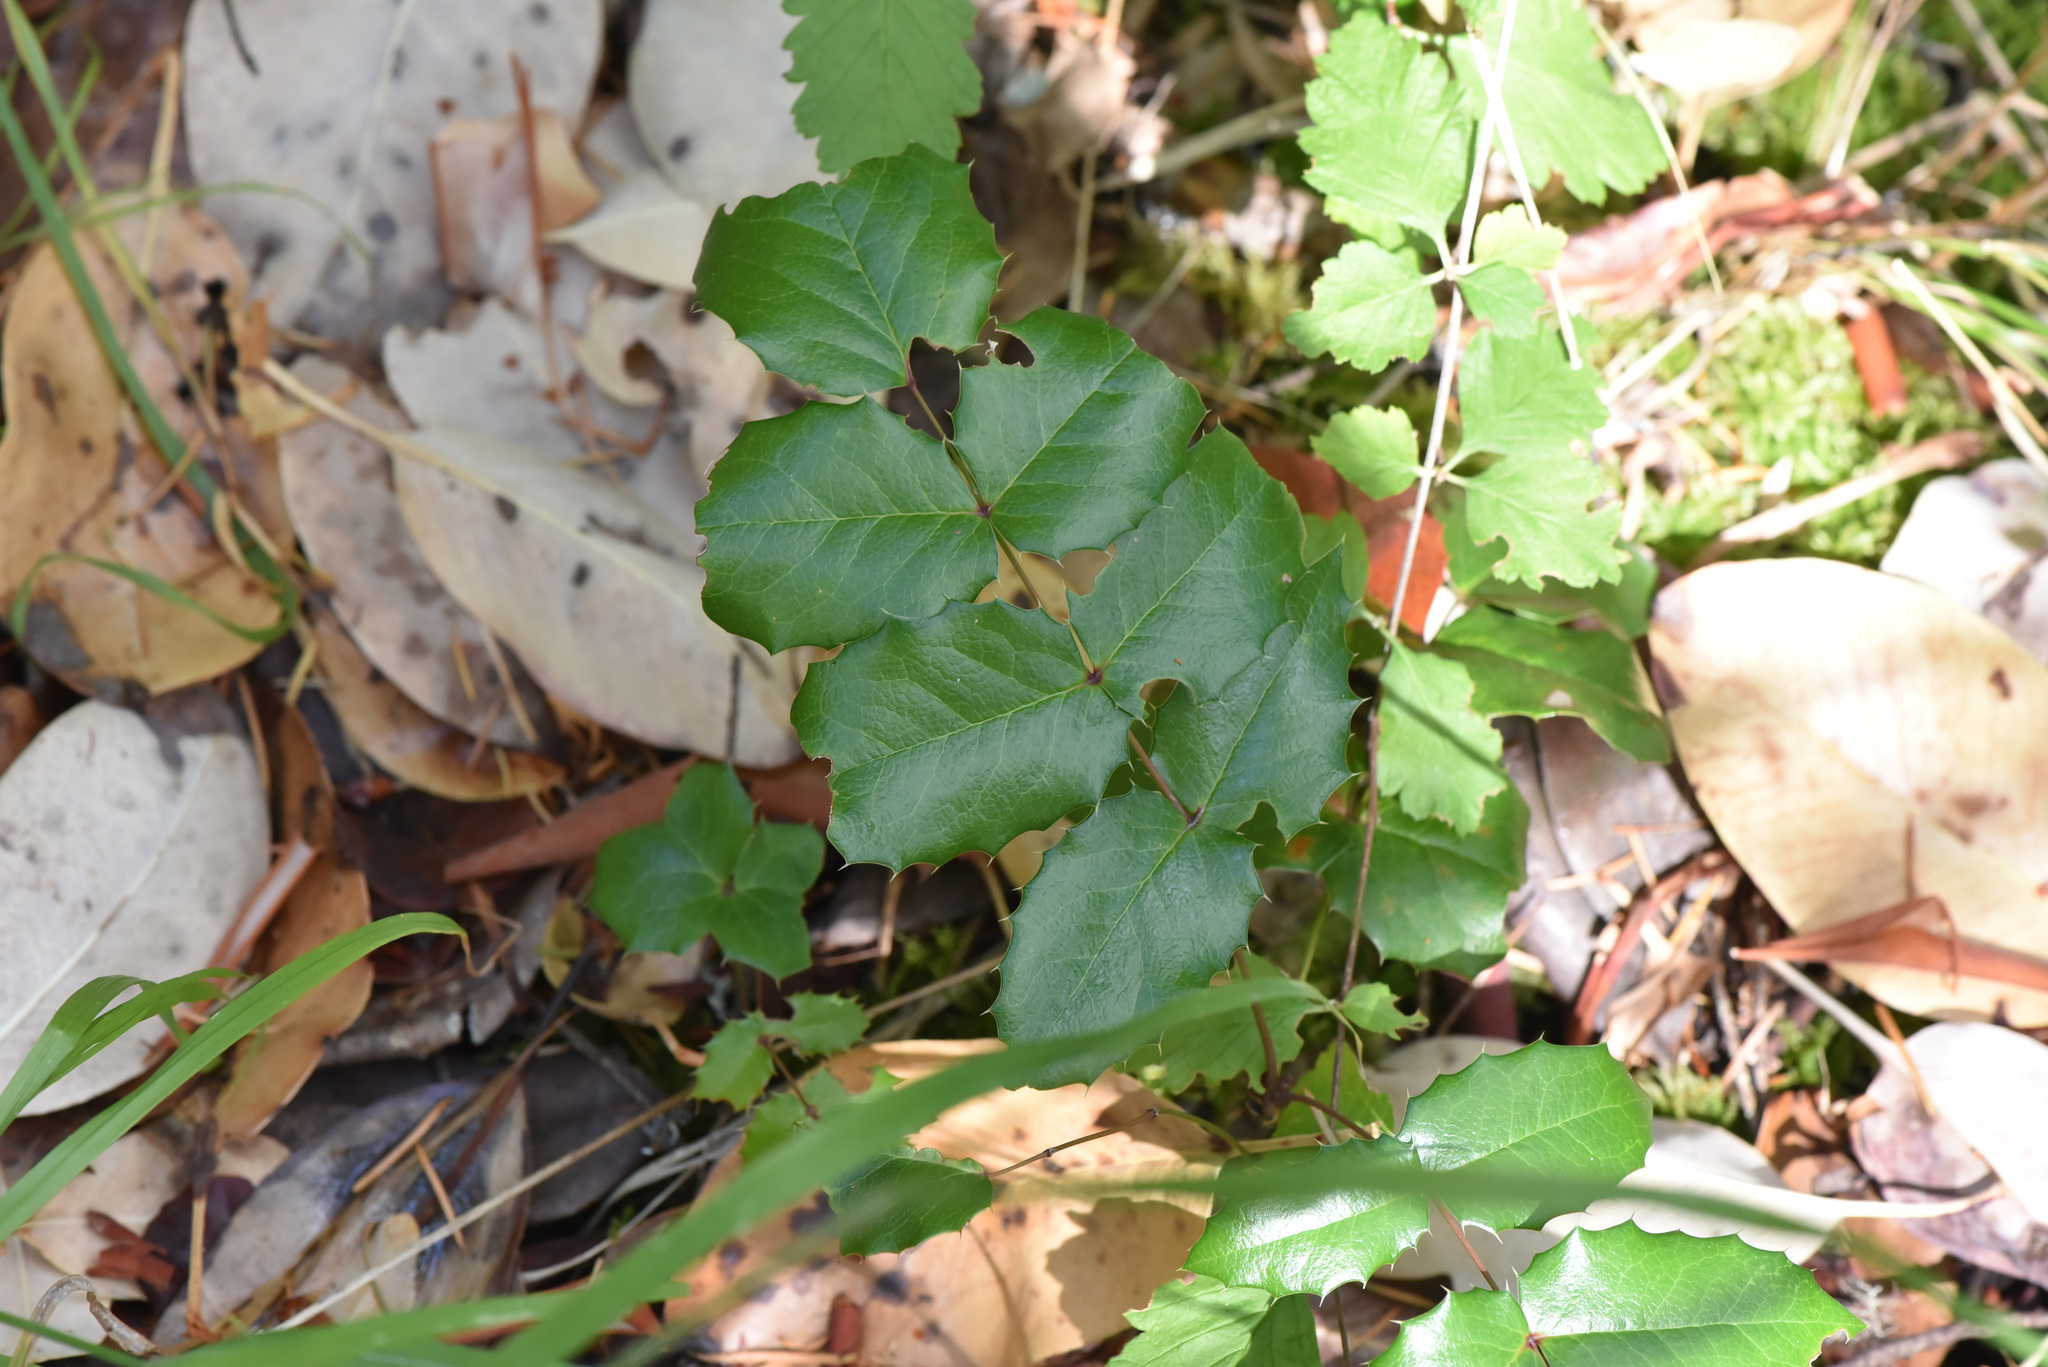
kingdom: Plantae
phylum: Tracheophyta
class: Magnoliopsida
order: Ranunculales
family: Berberidaceae
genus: Mahonia
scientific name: Mahonia aquifolium
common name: Oregon-grape
